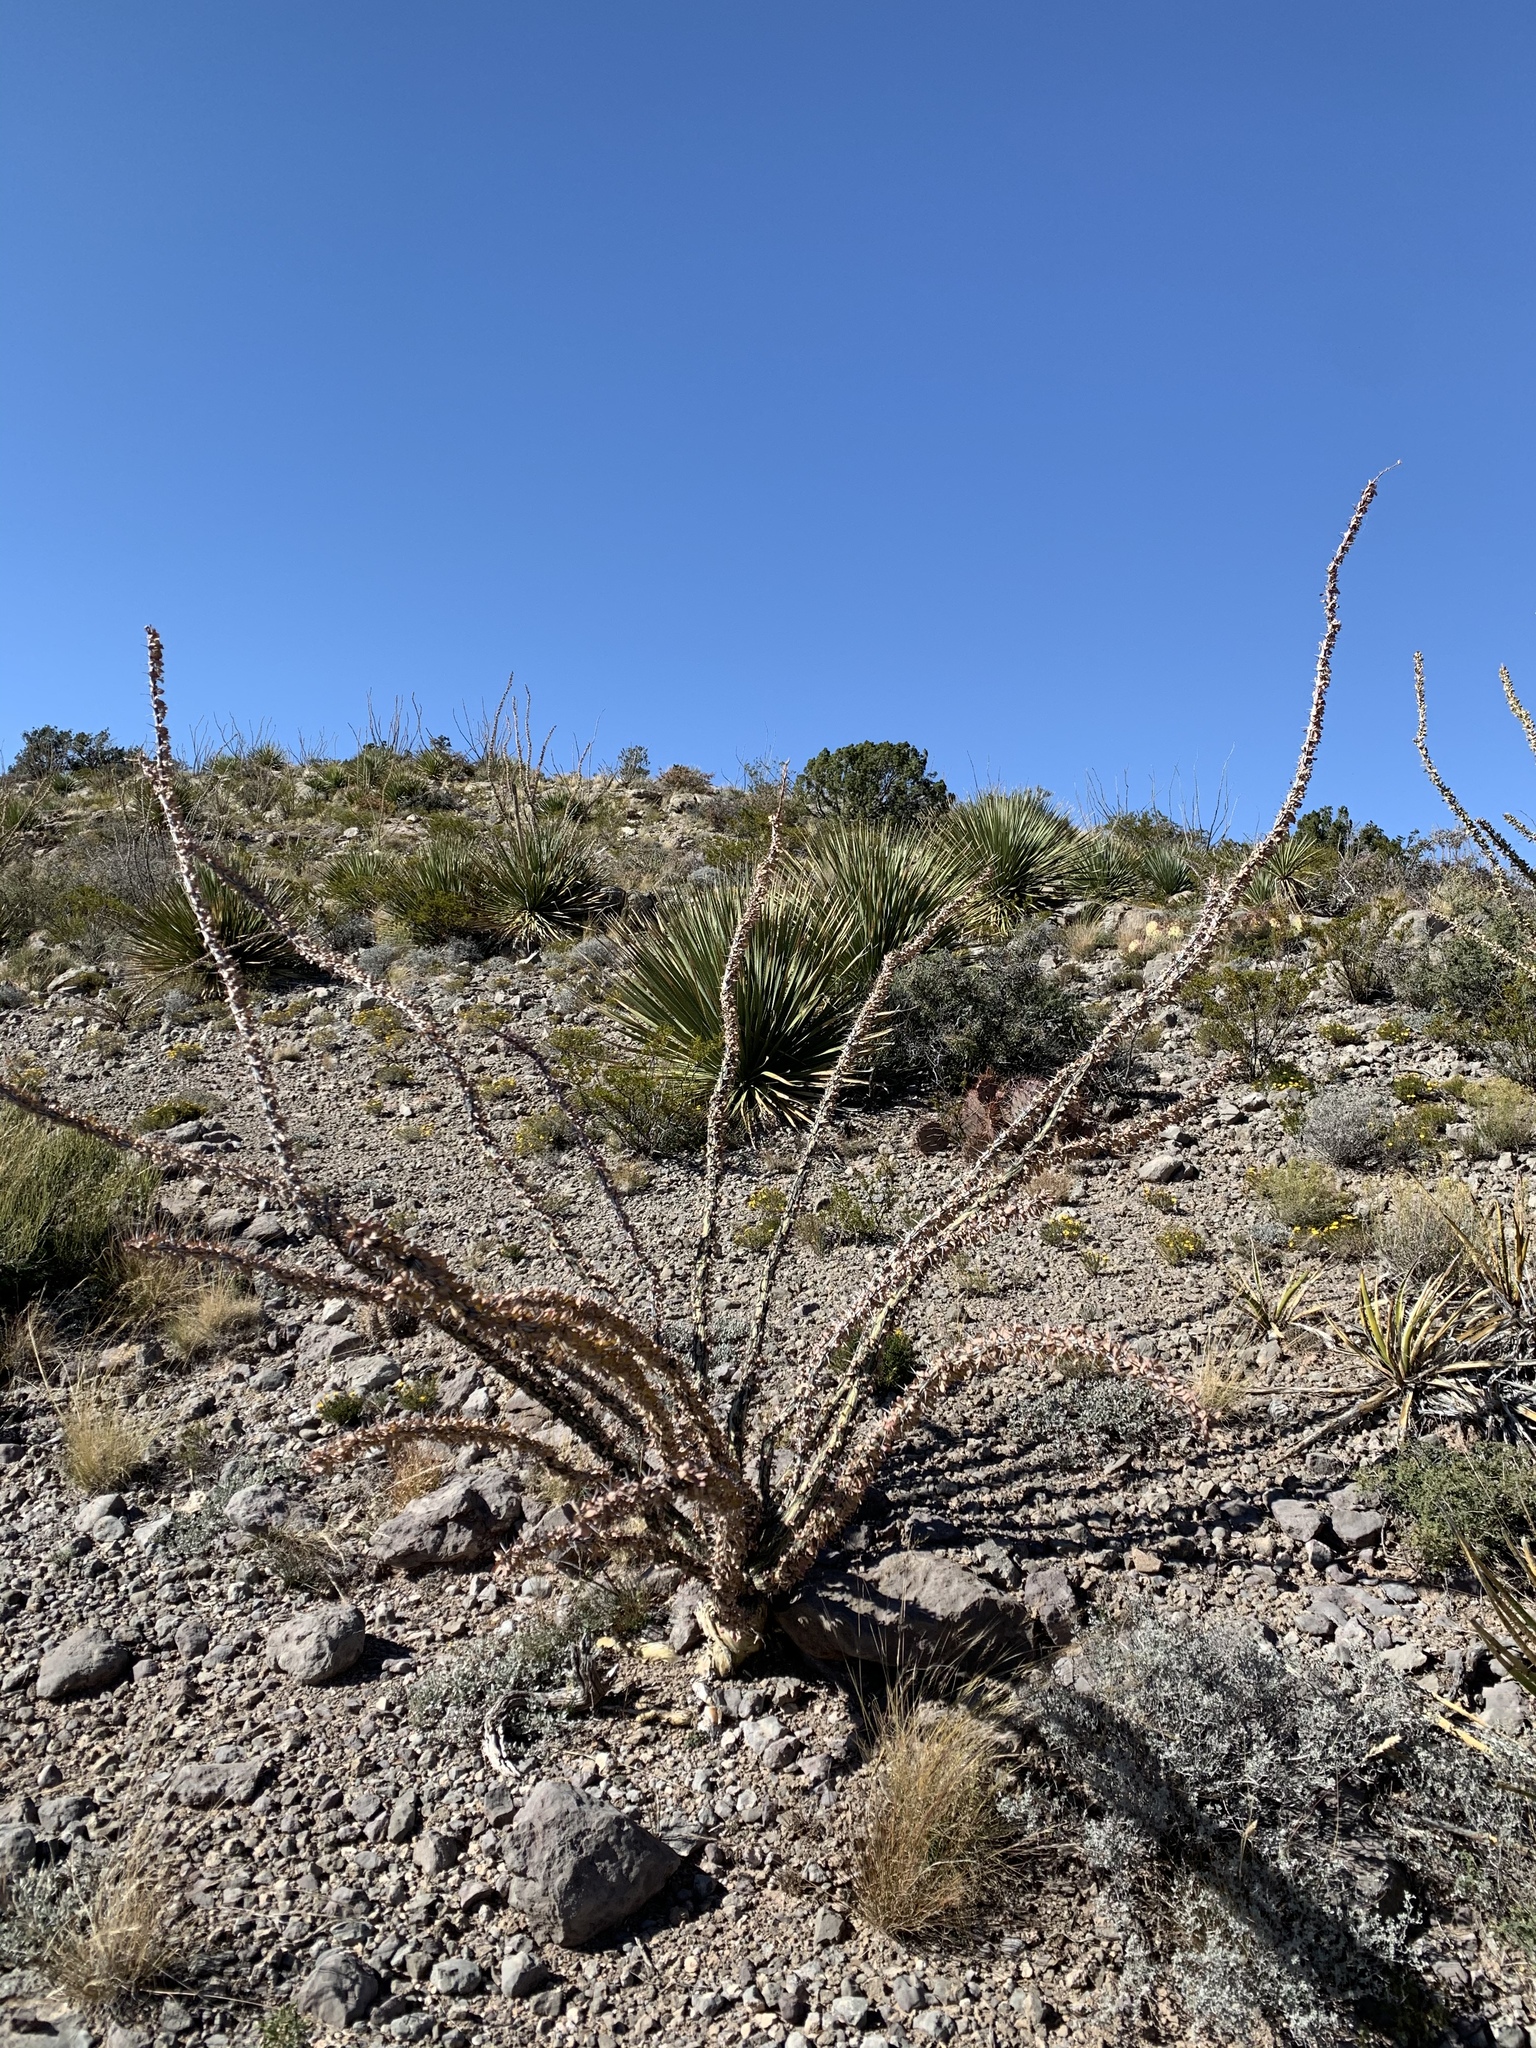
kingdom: Plantae
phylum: Tracheophyta
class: Magnoliopsida
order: Ericales
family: Fouquieriaceae
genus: Fouquieria
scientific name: Fouquieria splendens
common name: Vine-cactus
